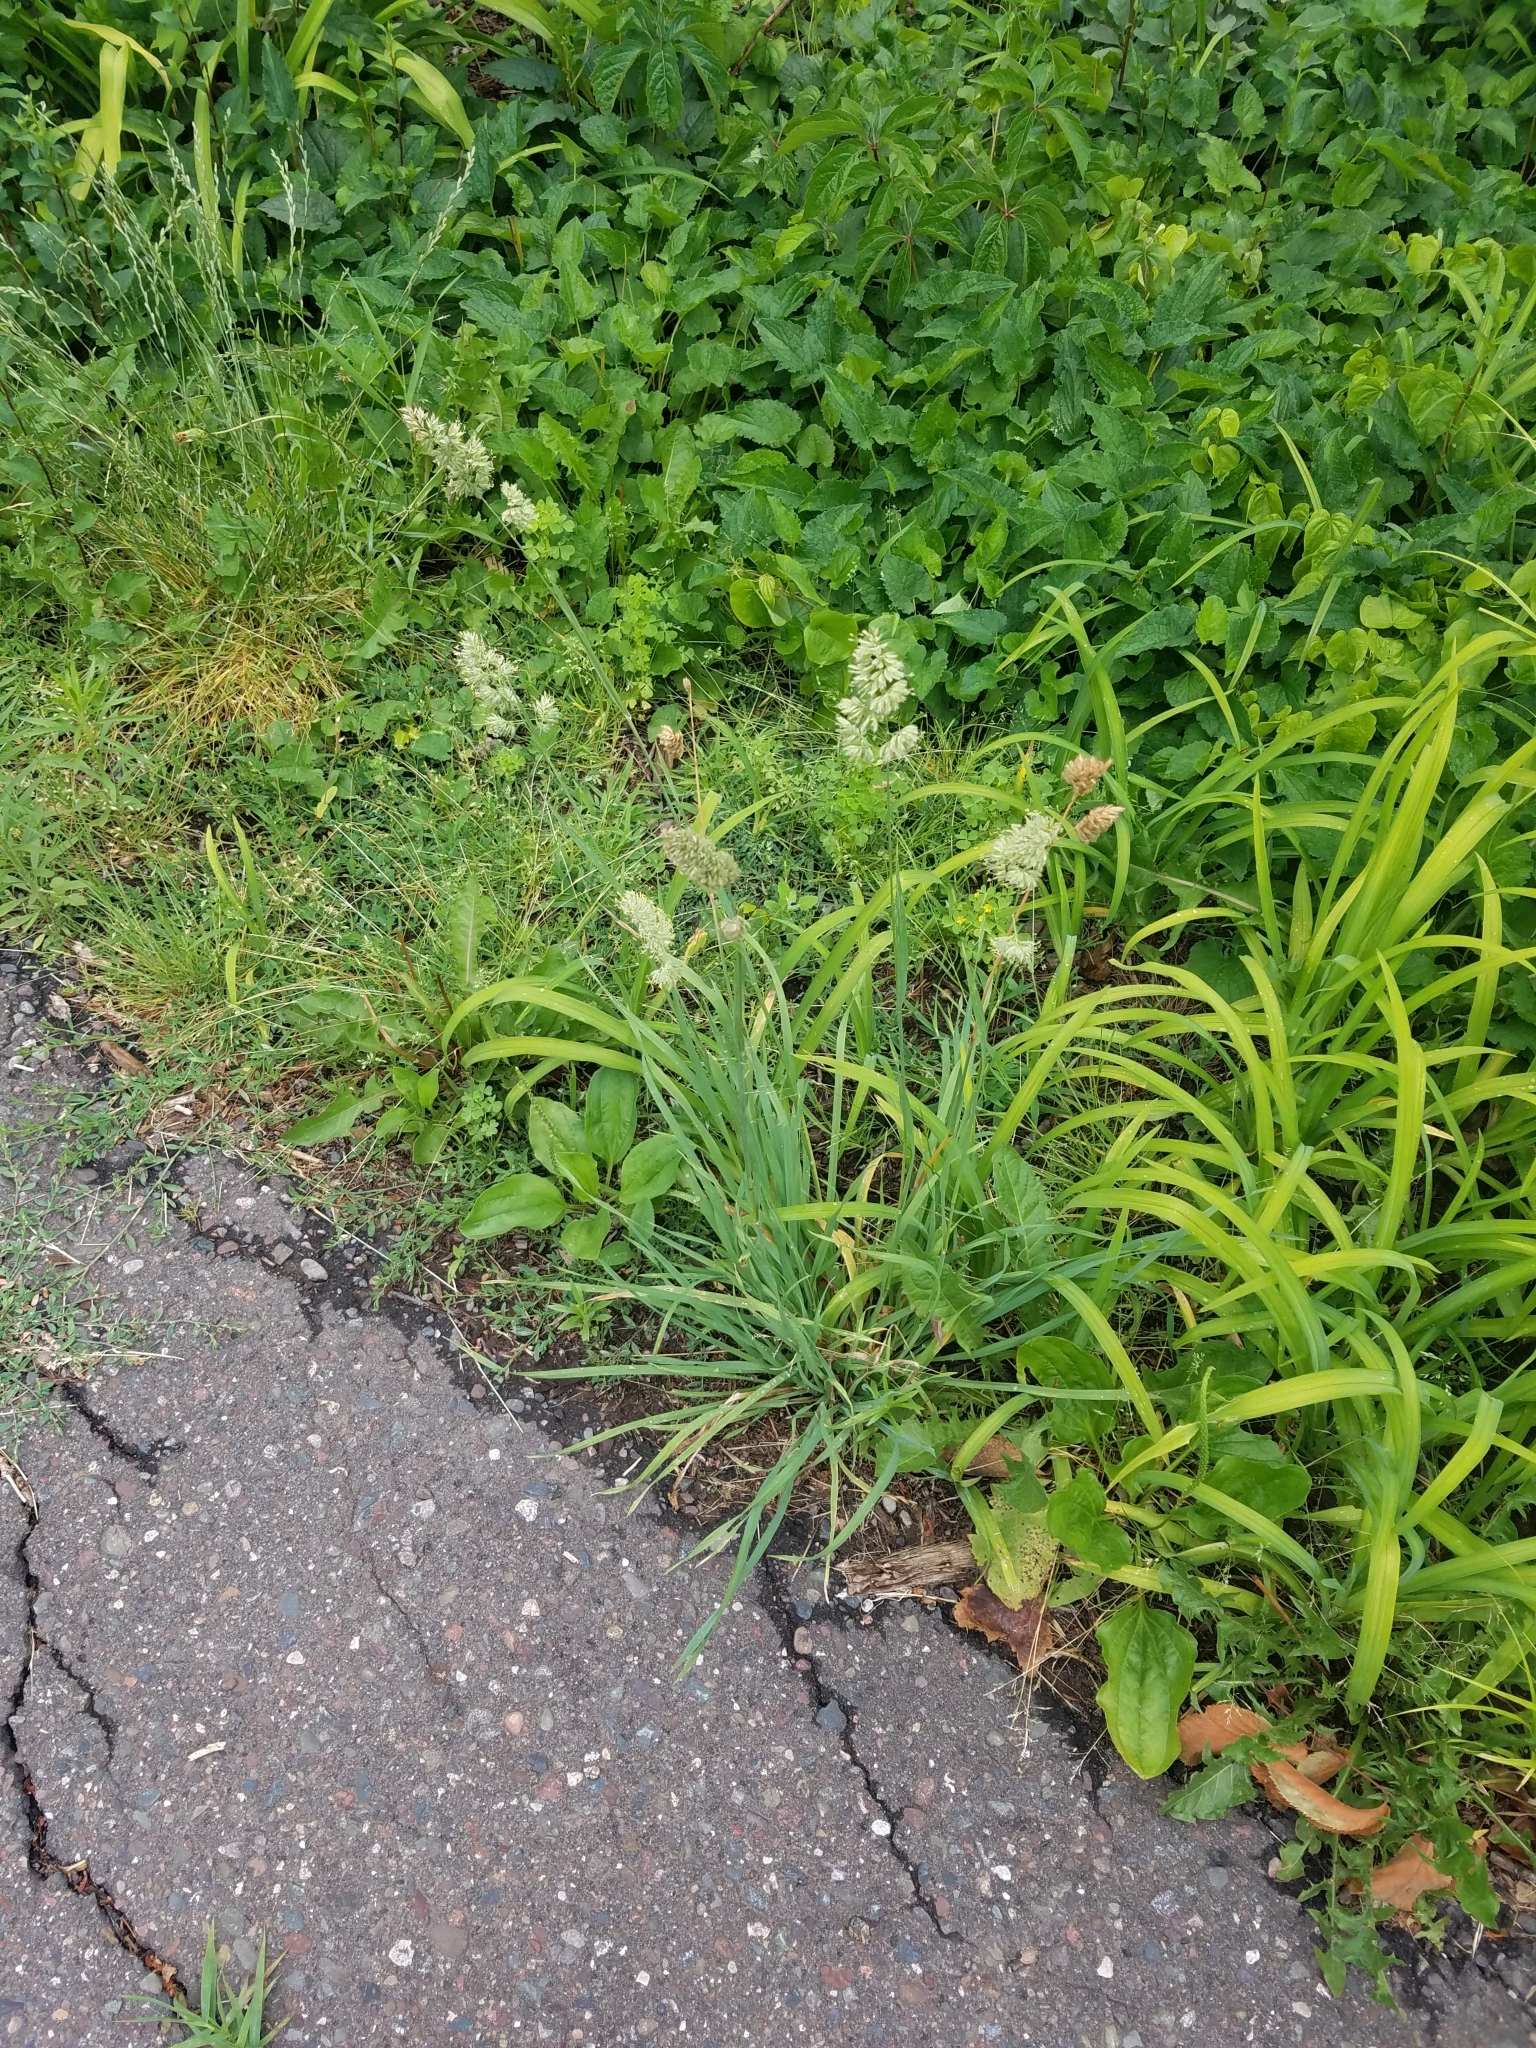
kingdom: Plantae
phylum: Tracheophyta
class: Liliopsida
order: Poales
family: Poaceae
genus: Dactylis
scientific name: Dactylis glomerata
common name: Orchardgrass
